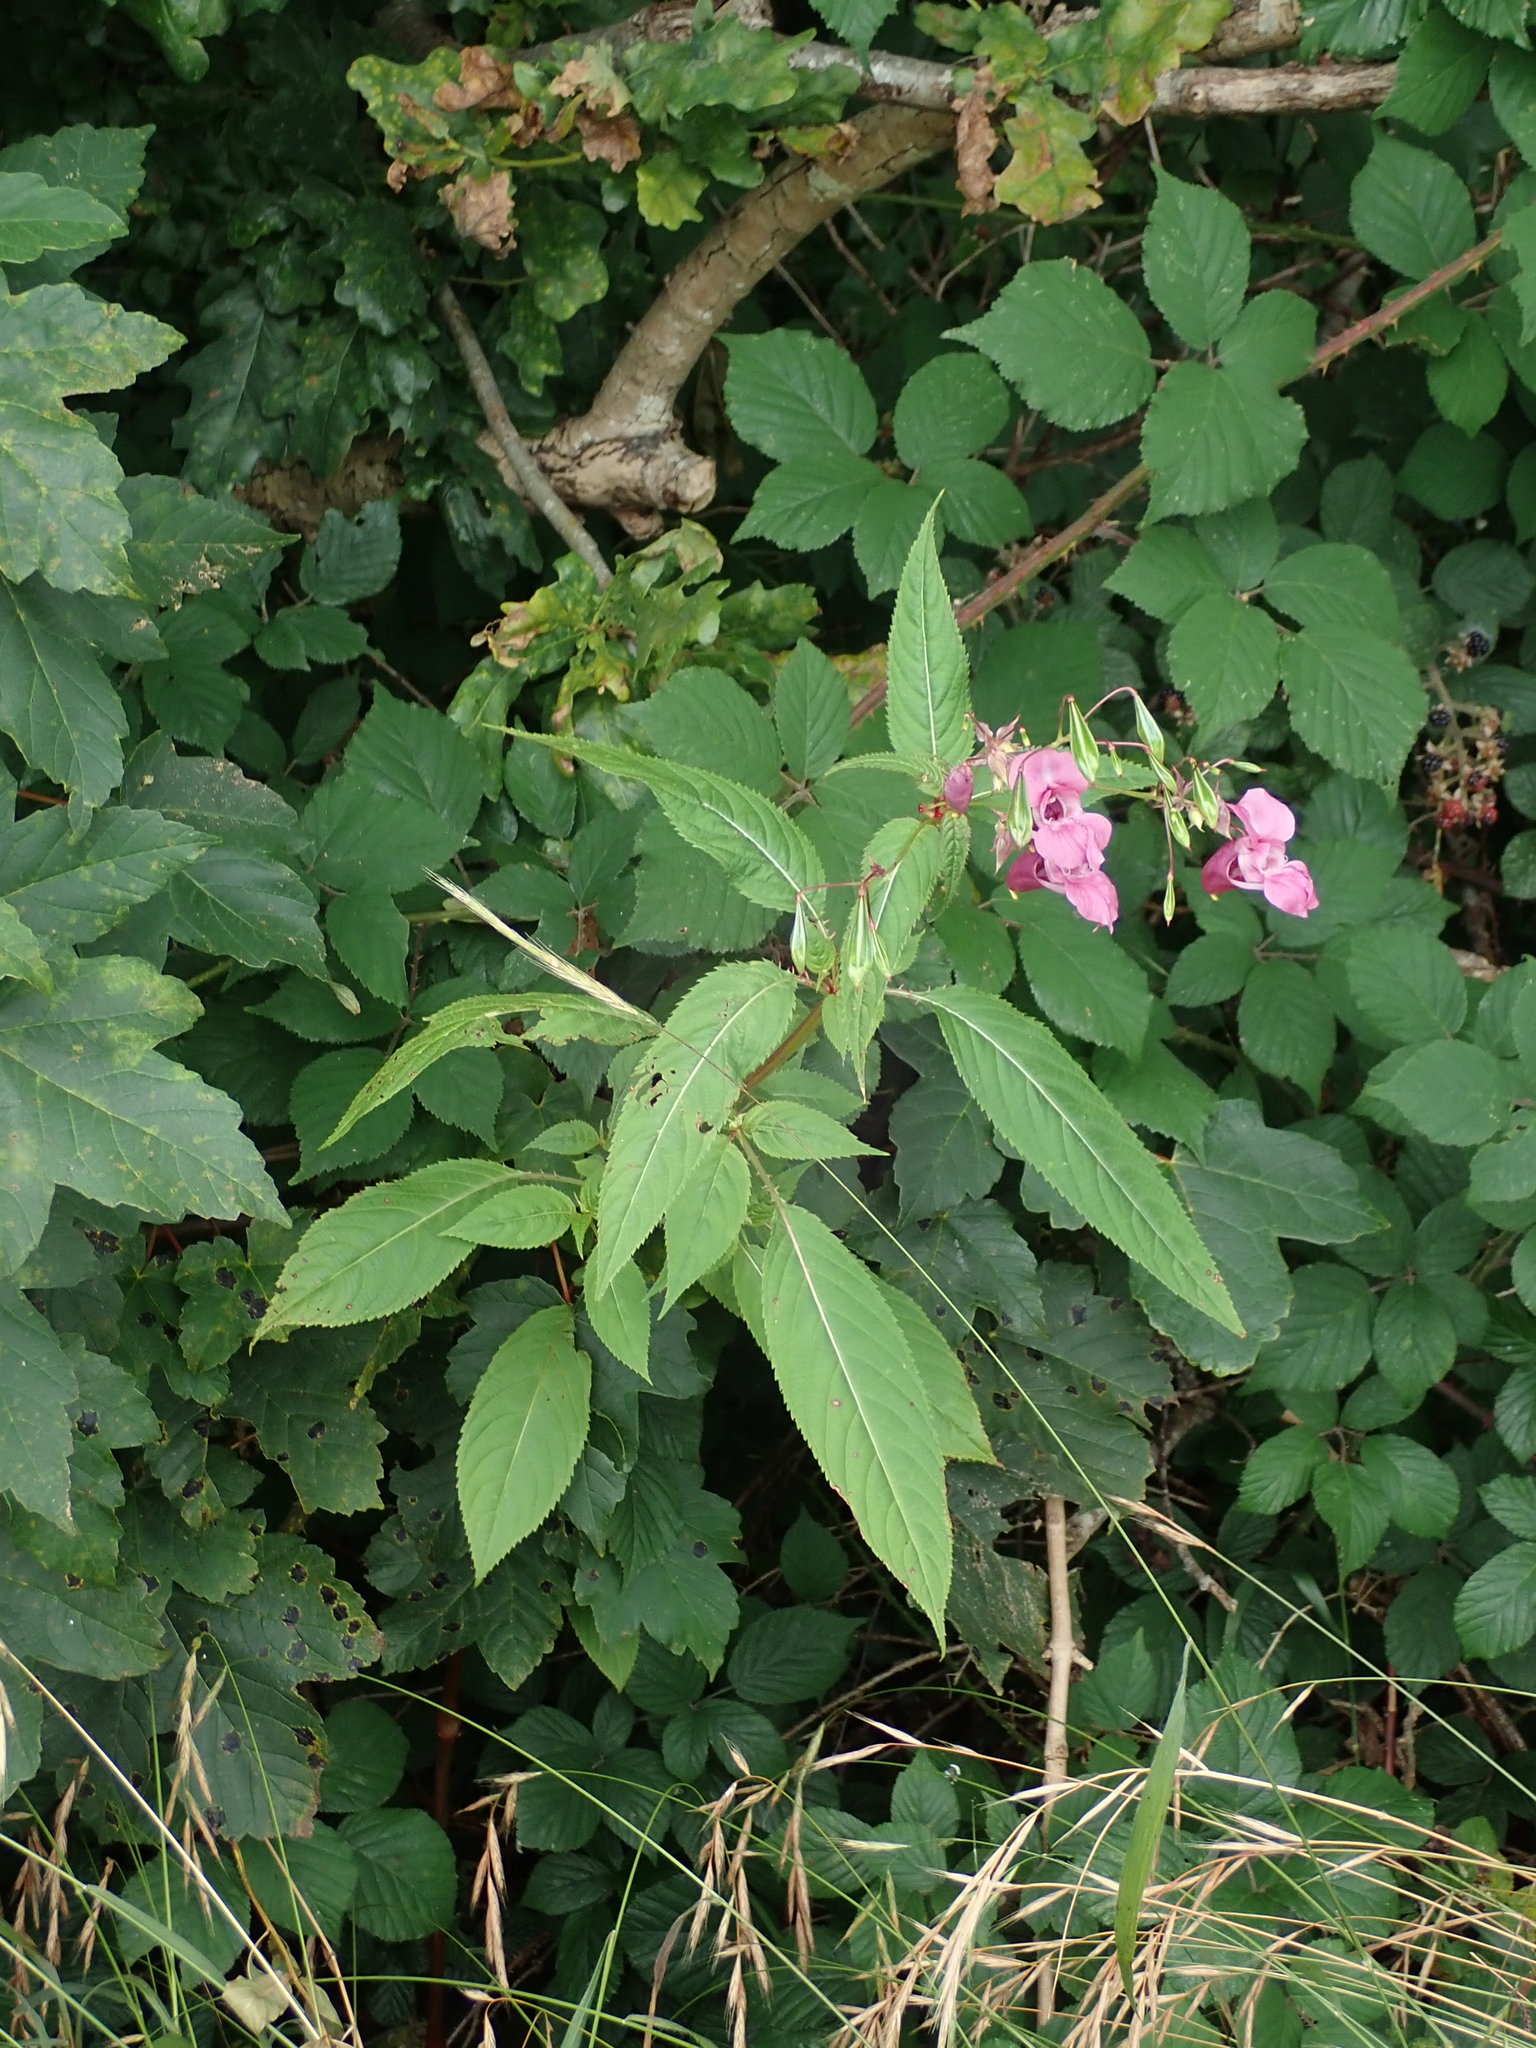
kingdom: Plantae
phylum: Tracheophyta
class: Magnoliopsida
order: Ericales
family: Balsaminaceae
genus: Impatiens
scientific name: Impatiens glandulifera
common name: Himalayan balsam
